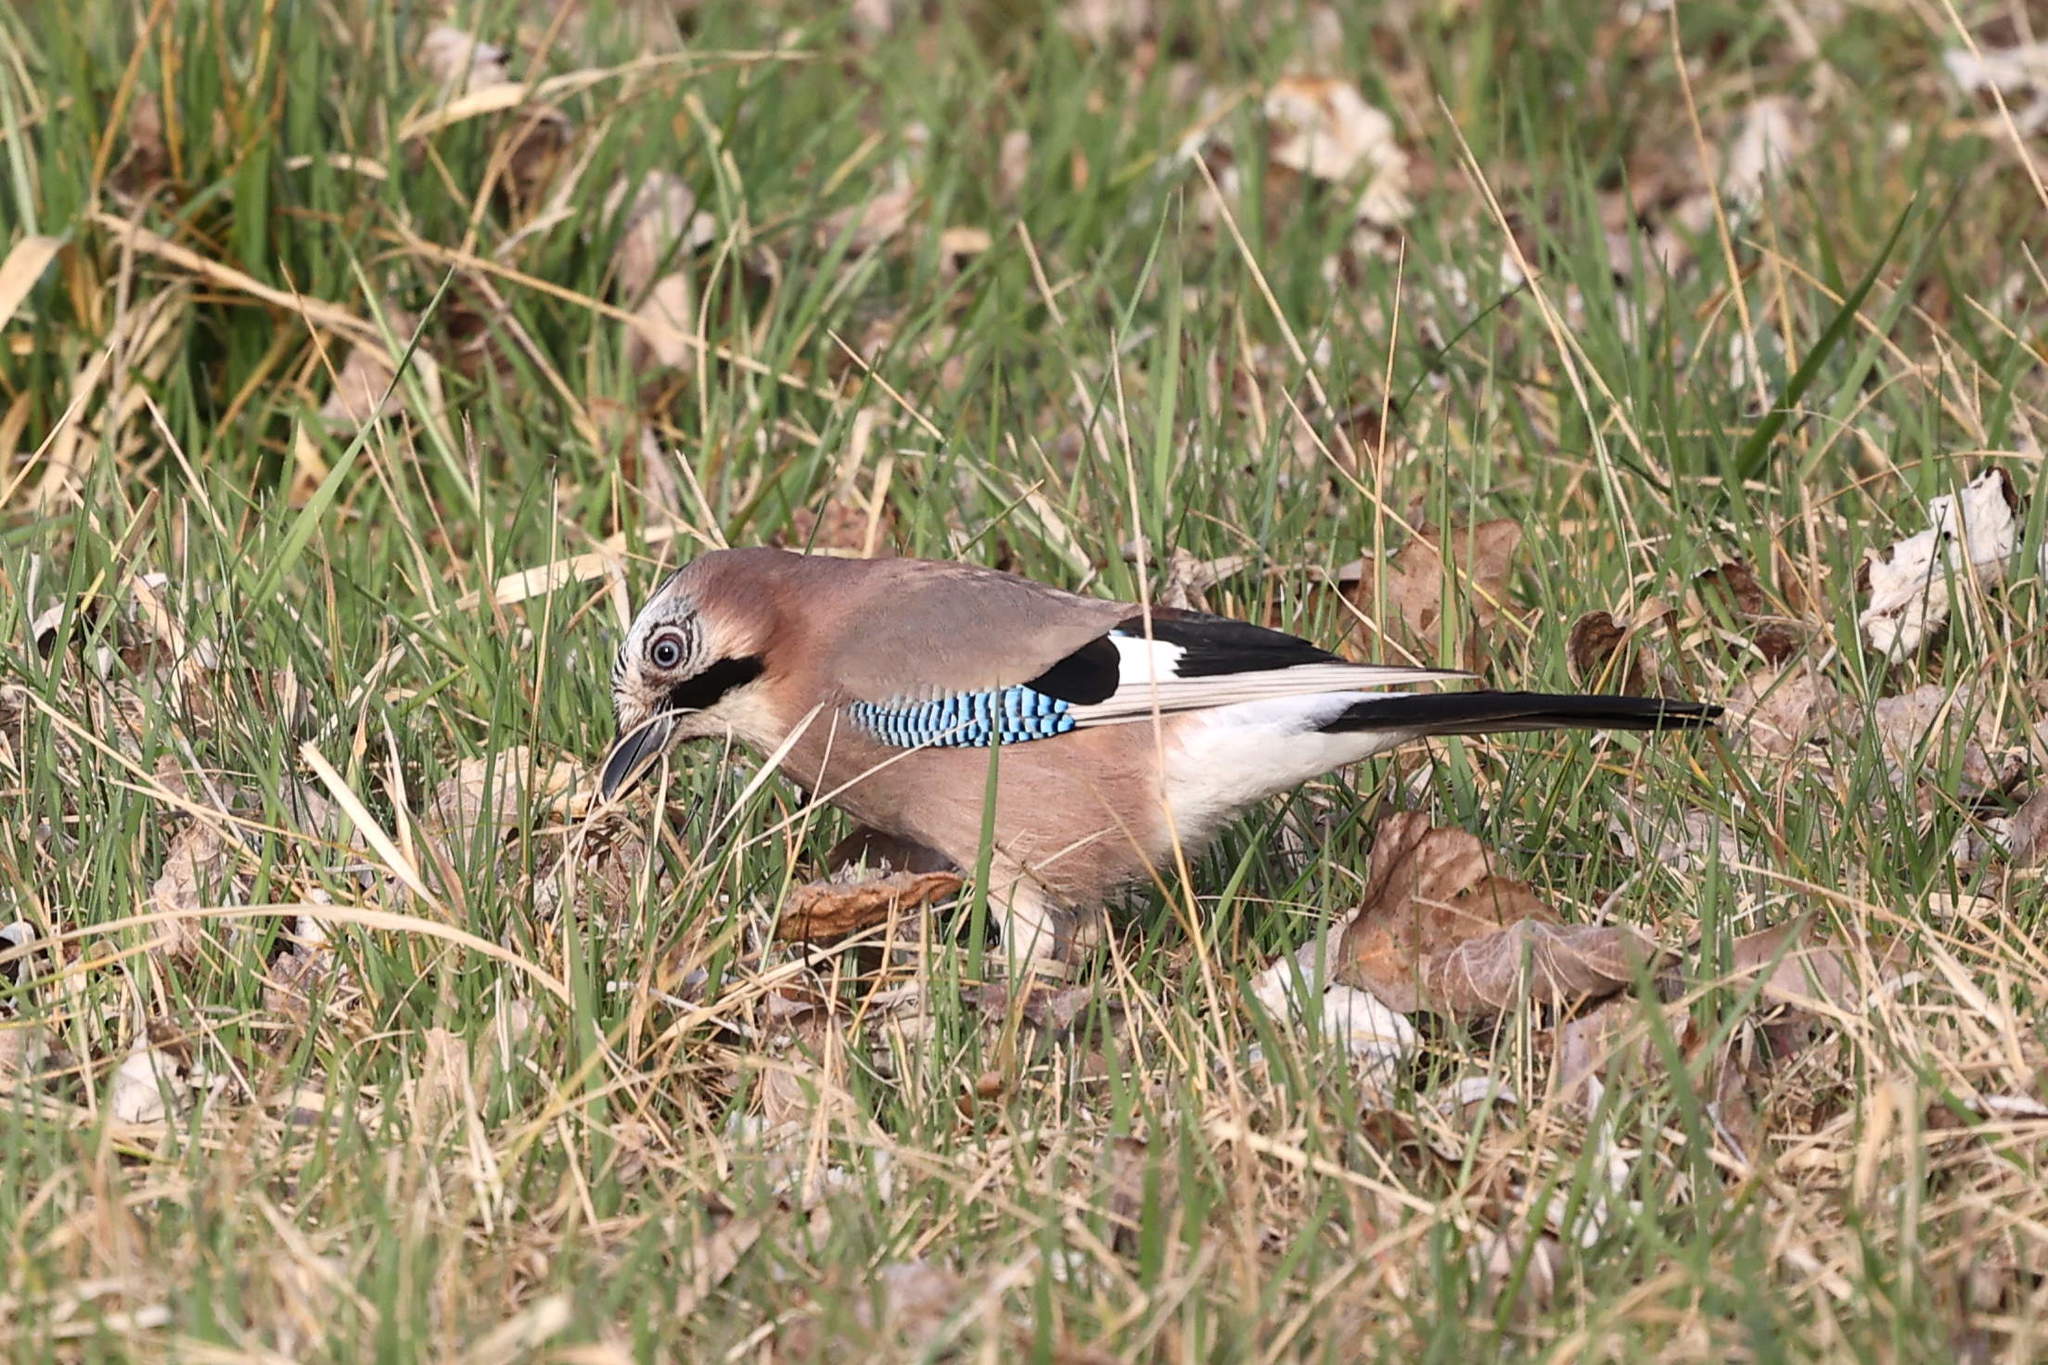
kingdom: Animalia
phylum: Chordata
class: Aves
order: Passeriformes
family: Corvidae
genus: Garrulus
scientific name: Garrulus glandarius
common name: Eurasian jay
